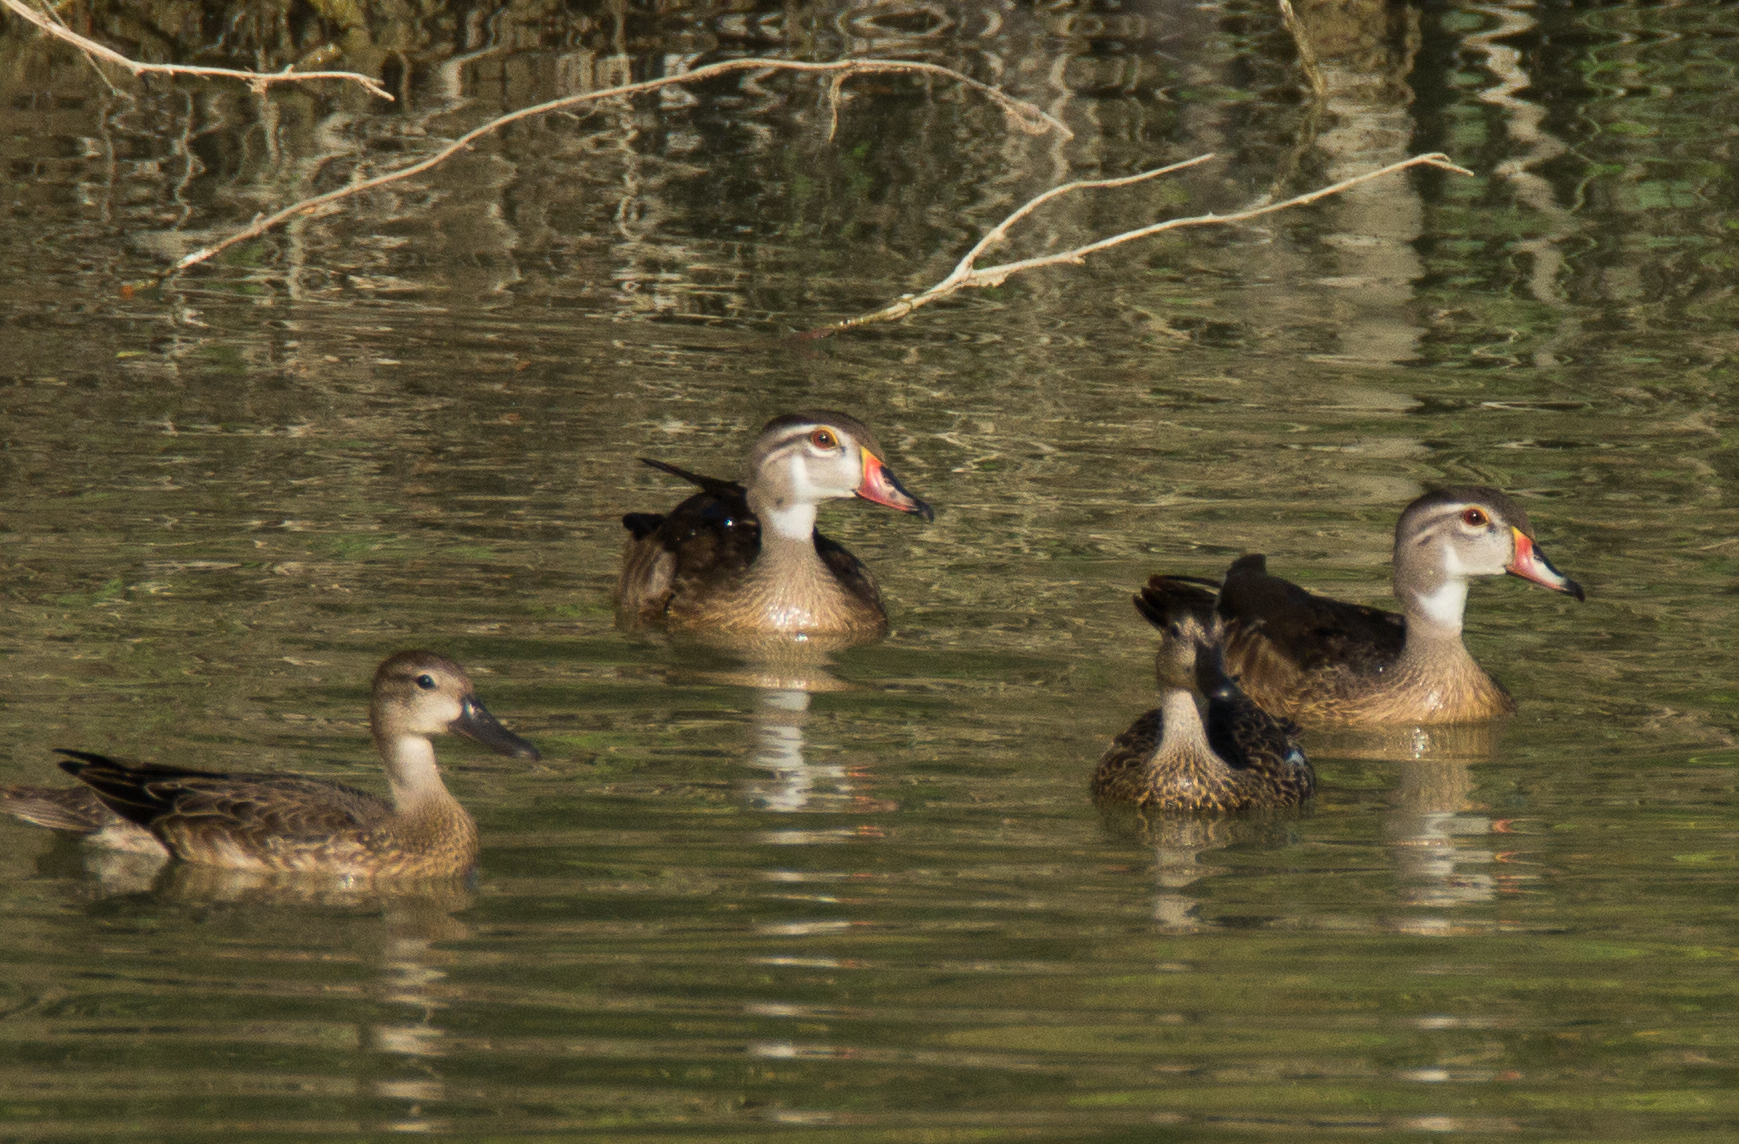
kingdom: Animalia
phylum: Chordata
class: Aves
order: Anseriformes
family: Anatidae
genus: Aix
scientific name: Aix sponsa
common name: Wood duck
